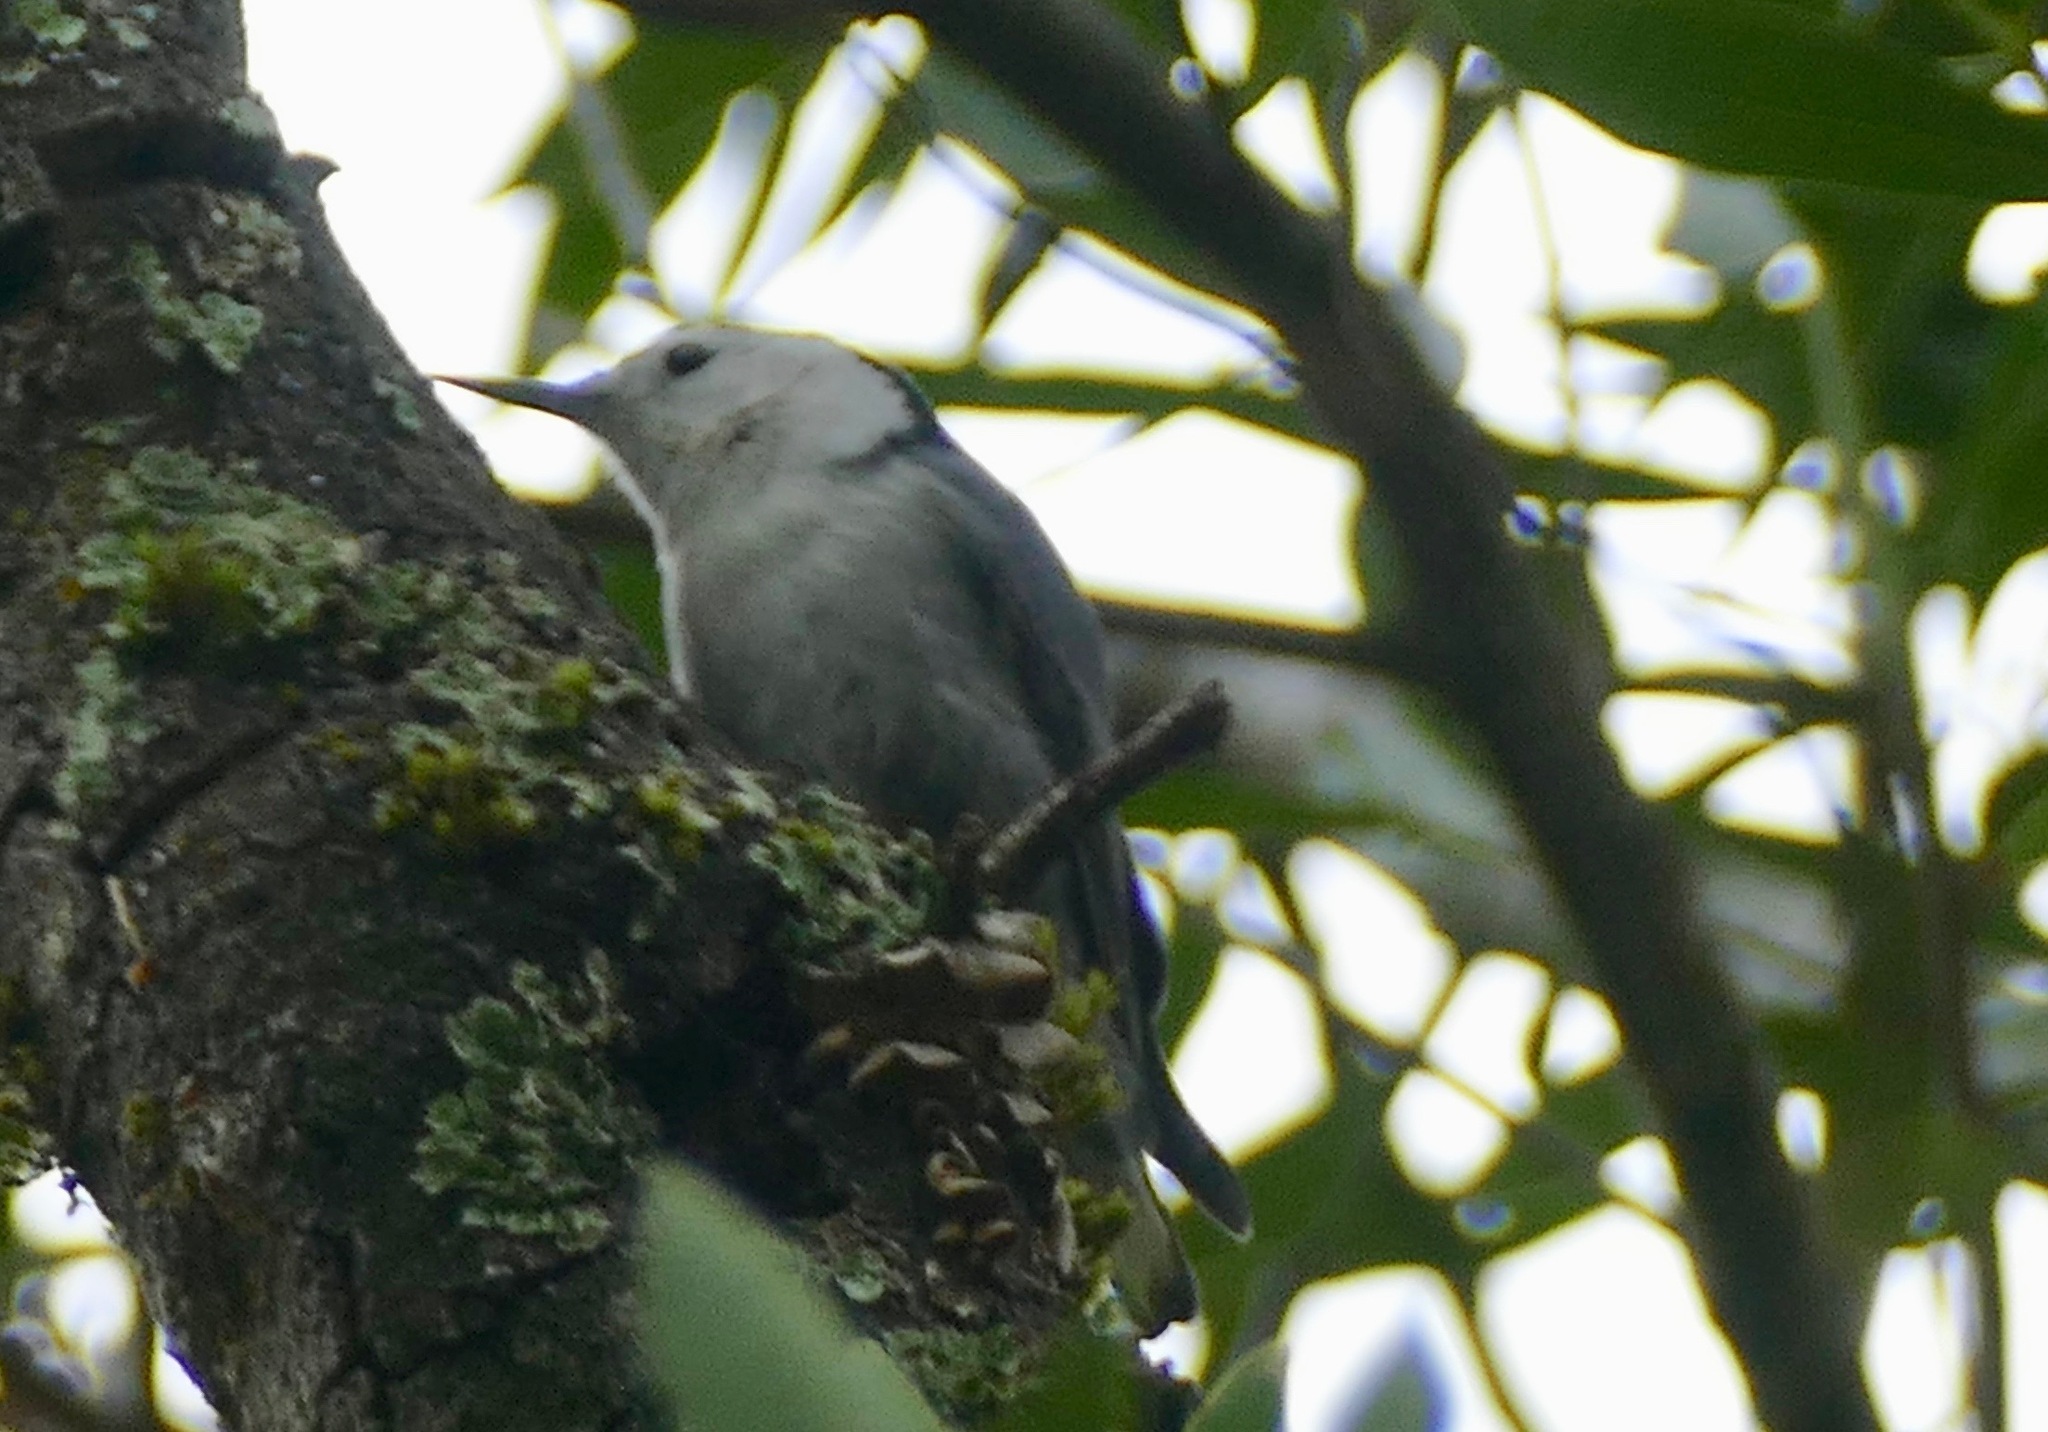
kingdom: Animalia
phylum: Chordata
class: Aves
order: Passeriformes
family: Sittidae
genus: Sitta
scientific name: Sitta carolinensis
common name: White-breasted nuthatch
